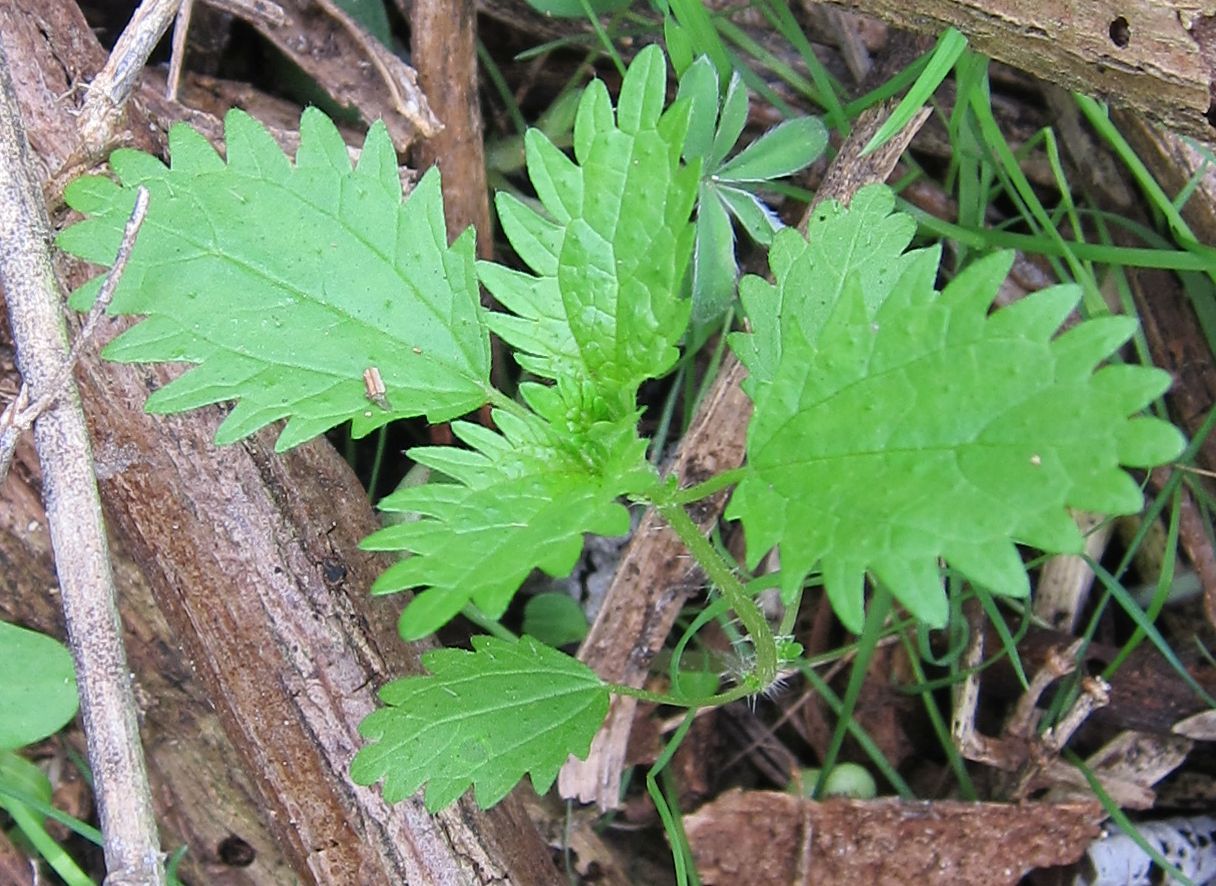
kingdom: Plantae
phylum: Tracheophyta
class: Magnoliopsida
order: Rosales
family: Urticaceae
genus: Urtica
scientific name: Urtica urens
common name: Dwarf nettle
